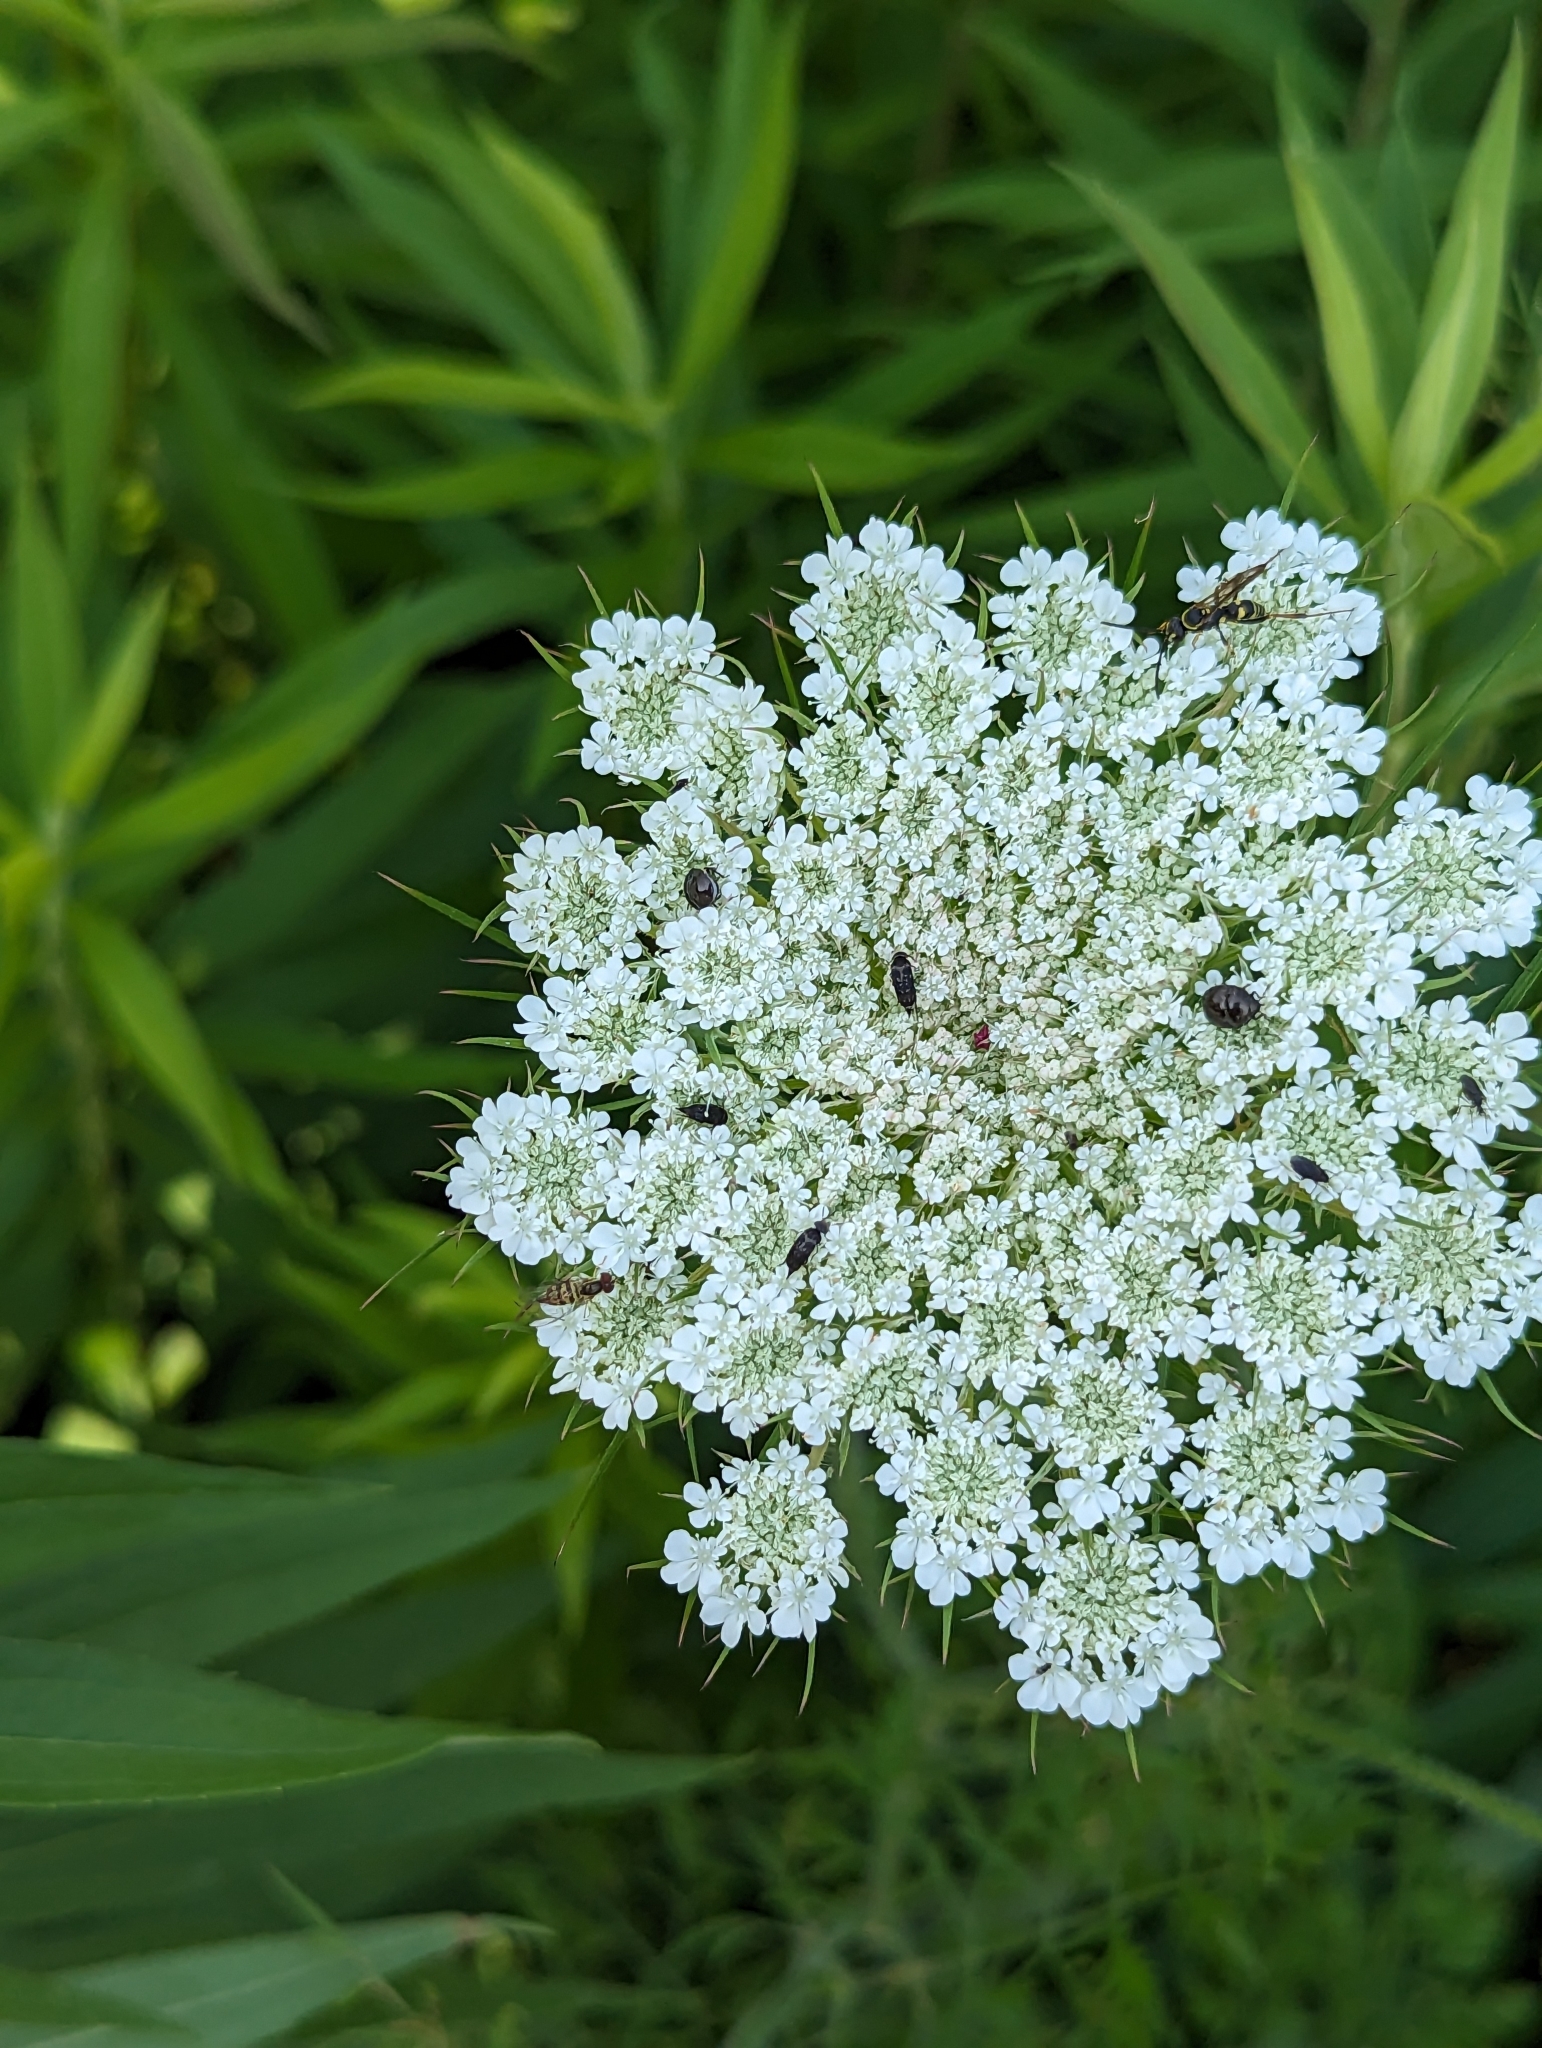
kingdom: Plantae
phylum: Tracheophyta
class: Magnoliopsida
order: Apiales
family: Apiaceae
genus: Daucus
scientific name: Daucus carota
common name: Wild carrot
